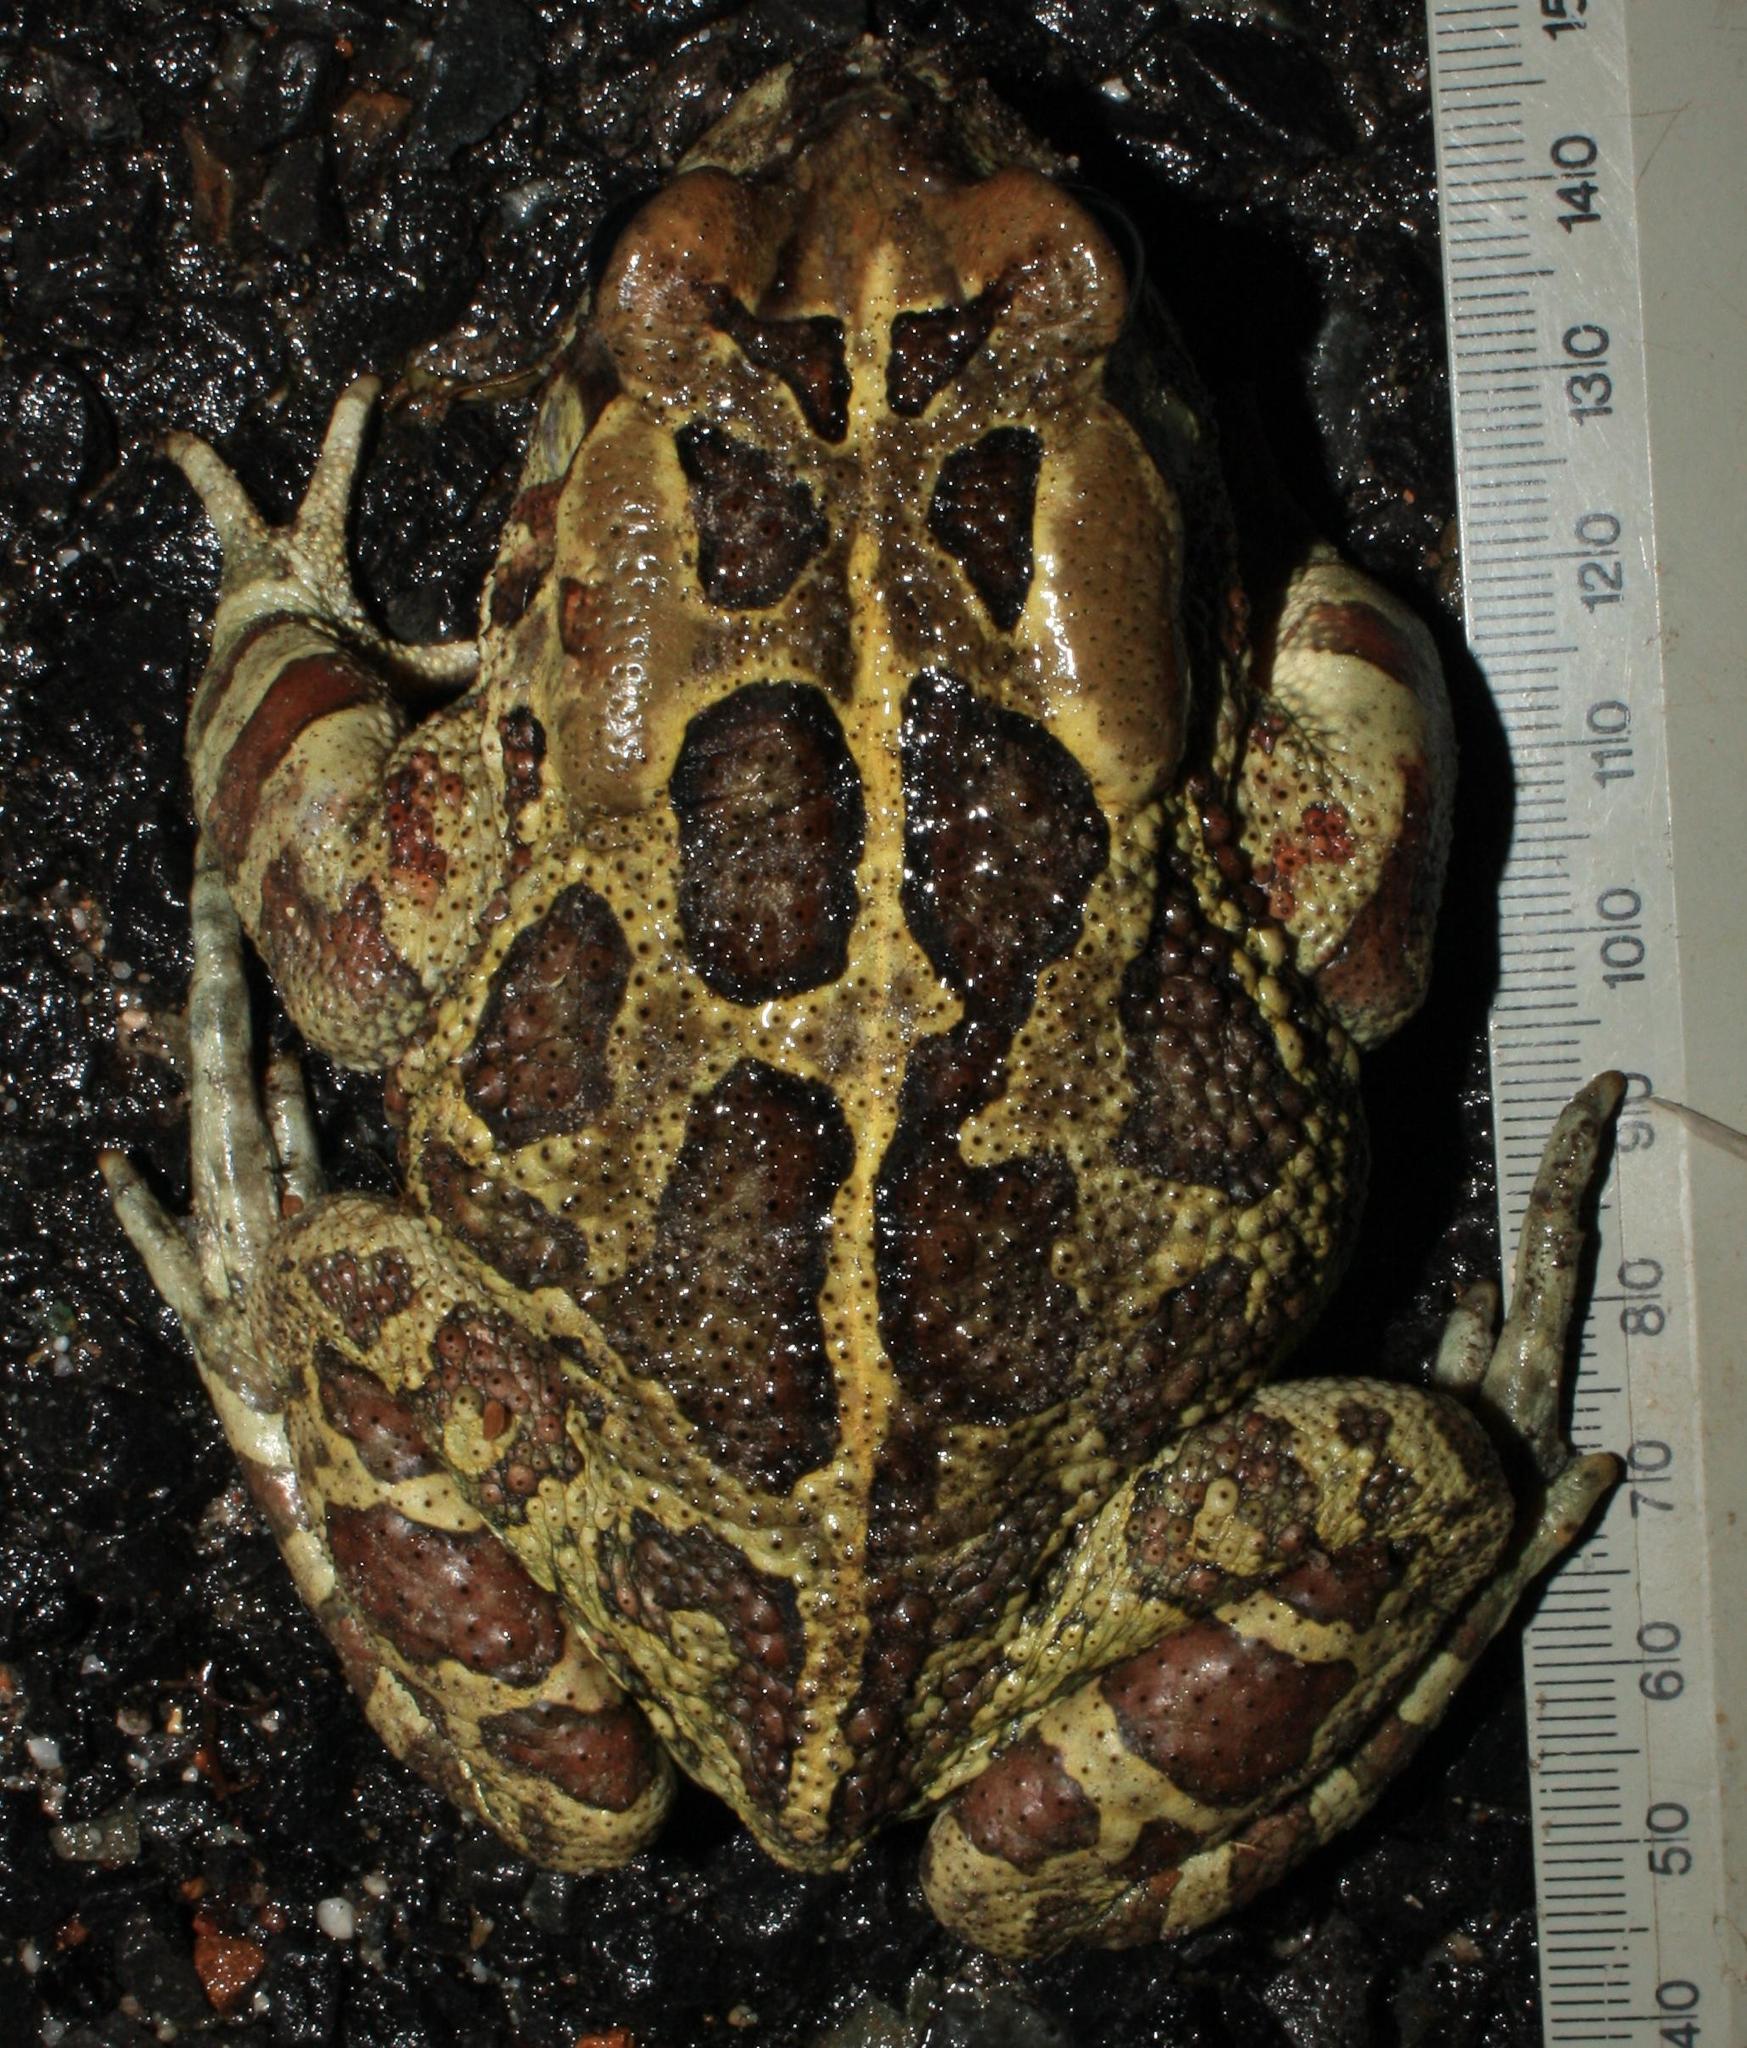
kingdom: Animalia
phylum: Chordata
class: Amphibia
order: Anura
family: Bufonidae
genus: Sclerophrys
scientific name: Sclerophrys pantherina
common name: Panther toad
